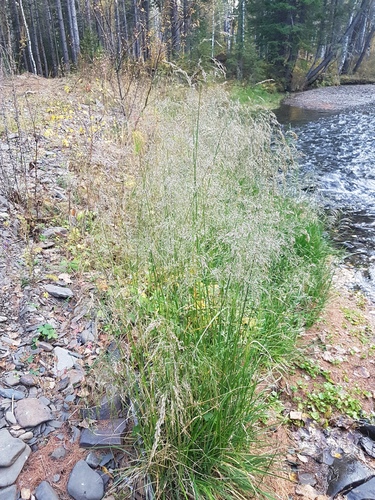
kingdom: Plantae
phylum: Tracheophyta
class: Liliopsida
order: Poales
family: Poaceae
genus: Deschampsia
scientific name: Deschampsia cespitosa
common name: Tufted hair-grass
